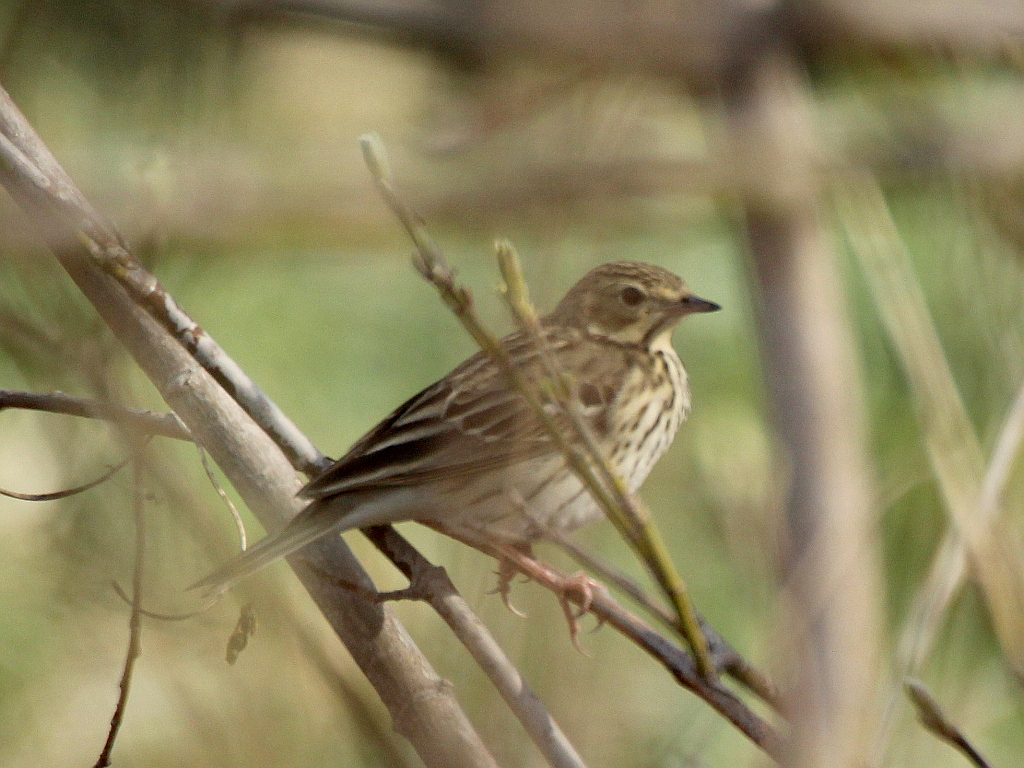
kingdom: Animalia
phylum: Chordata
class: Aves
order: Passeriformes
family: Motacillidae
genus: Anthus
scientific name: Anthus trivialis
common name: Tree pipit
